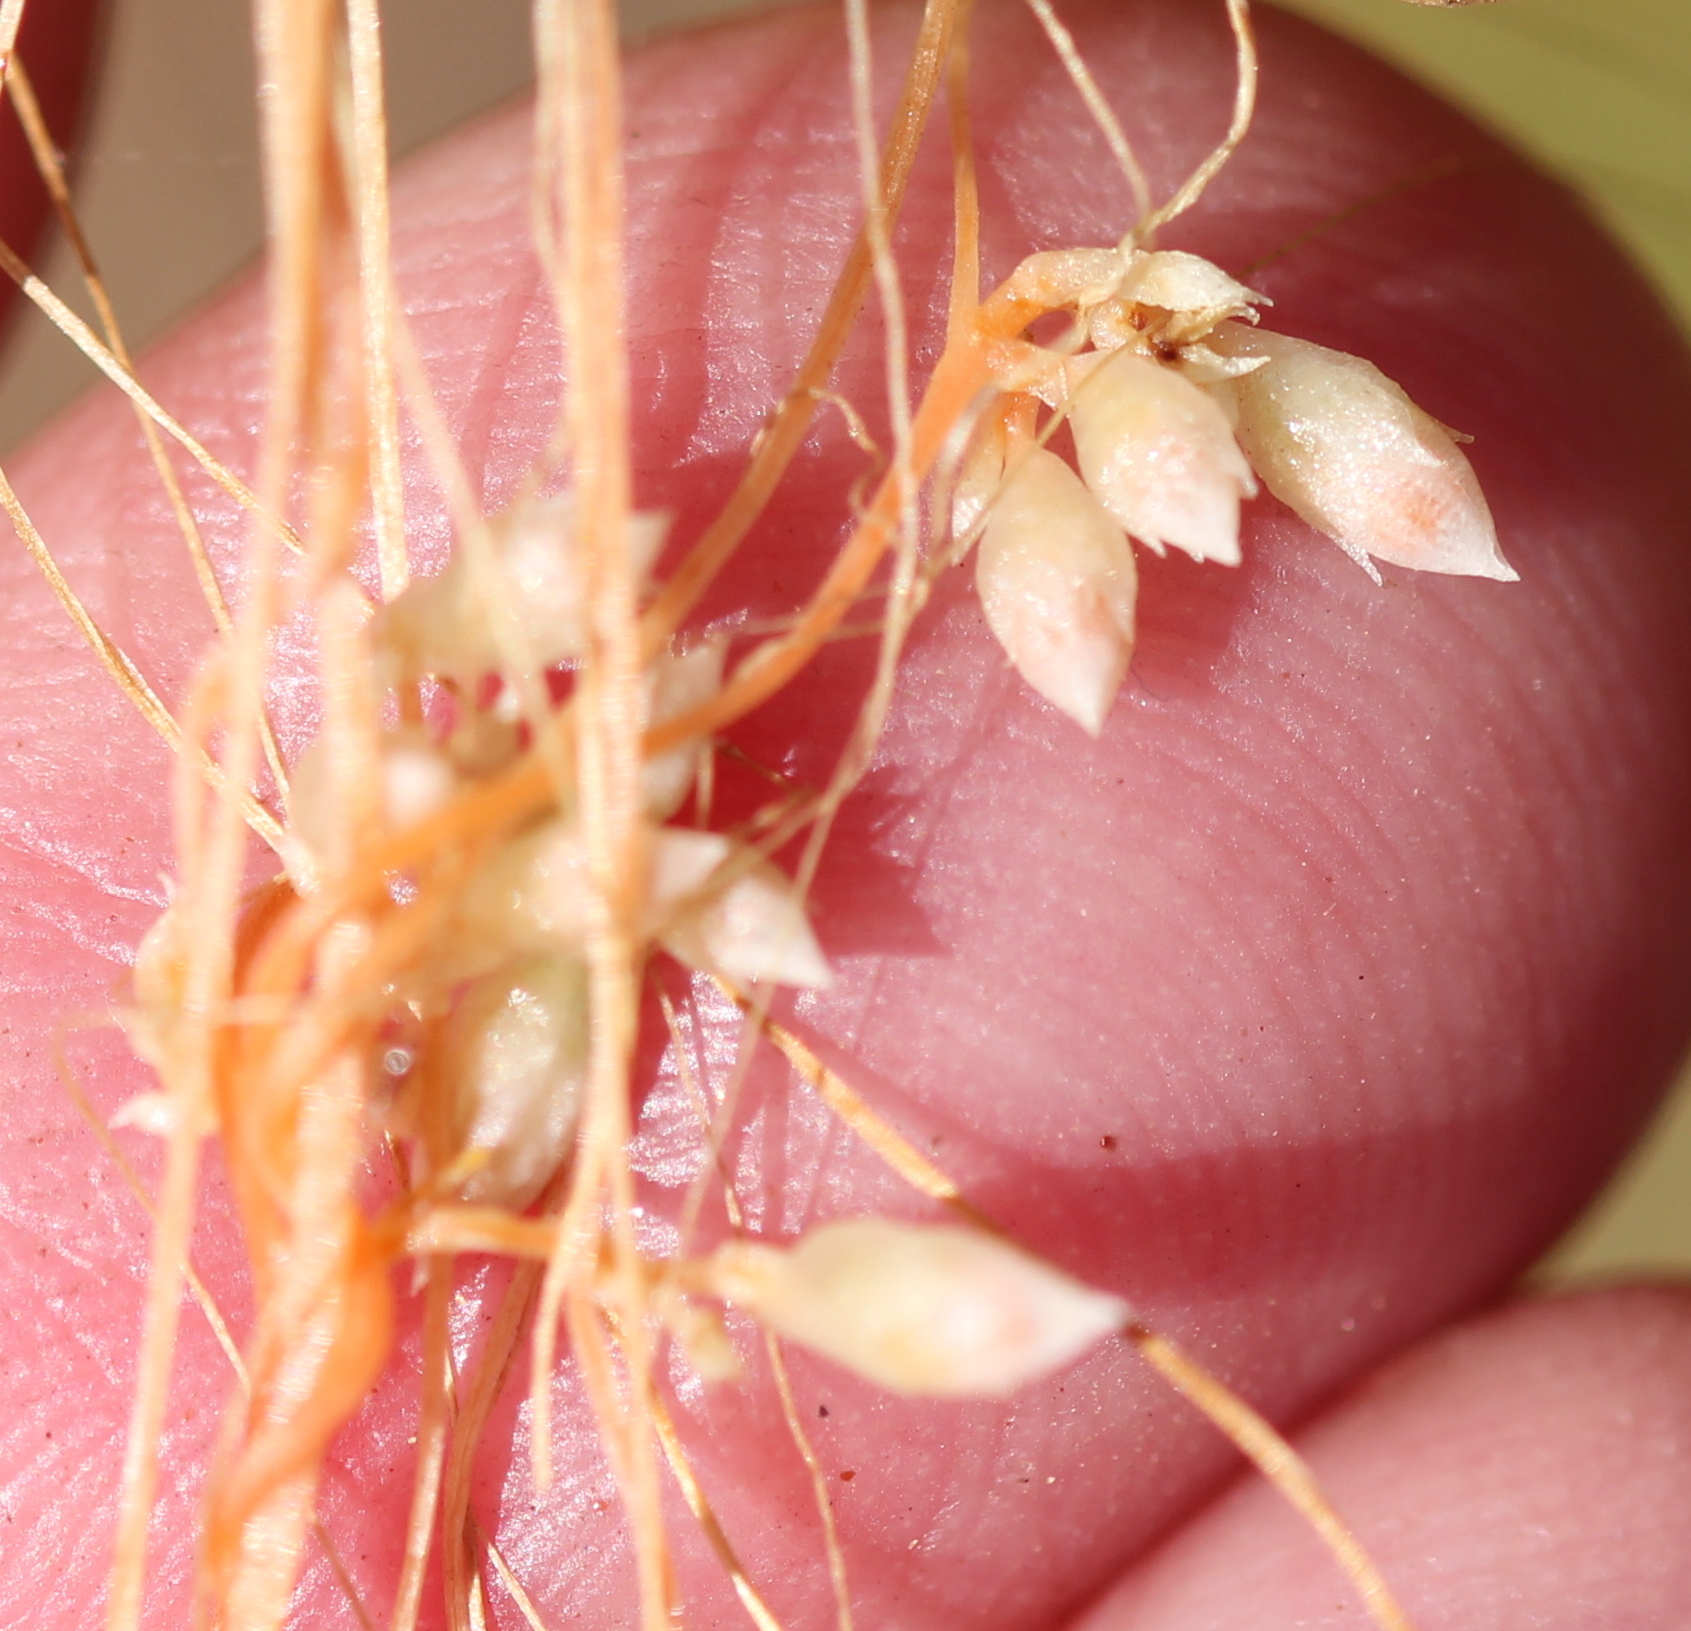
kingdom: Plantae
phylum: Tracheophyta
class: Magnoliopsida
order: Solanales
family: Convolvulaceae
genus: Cuscuta
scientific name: Cuscuta californica
